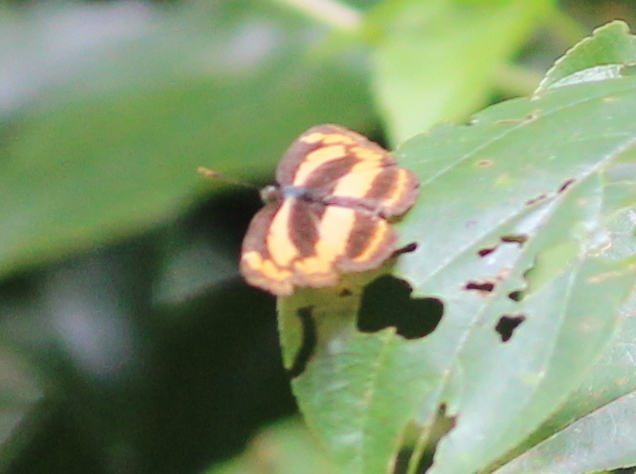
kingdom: Animalia
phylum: Arthropoda
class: Insecta
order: Lepidoptera
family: Nymphalidae
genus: Pantoporia
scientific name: Pantoporia hordonia
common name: Common lascar
